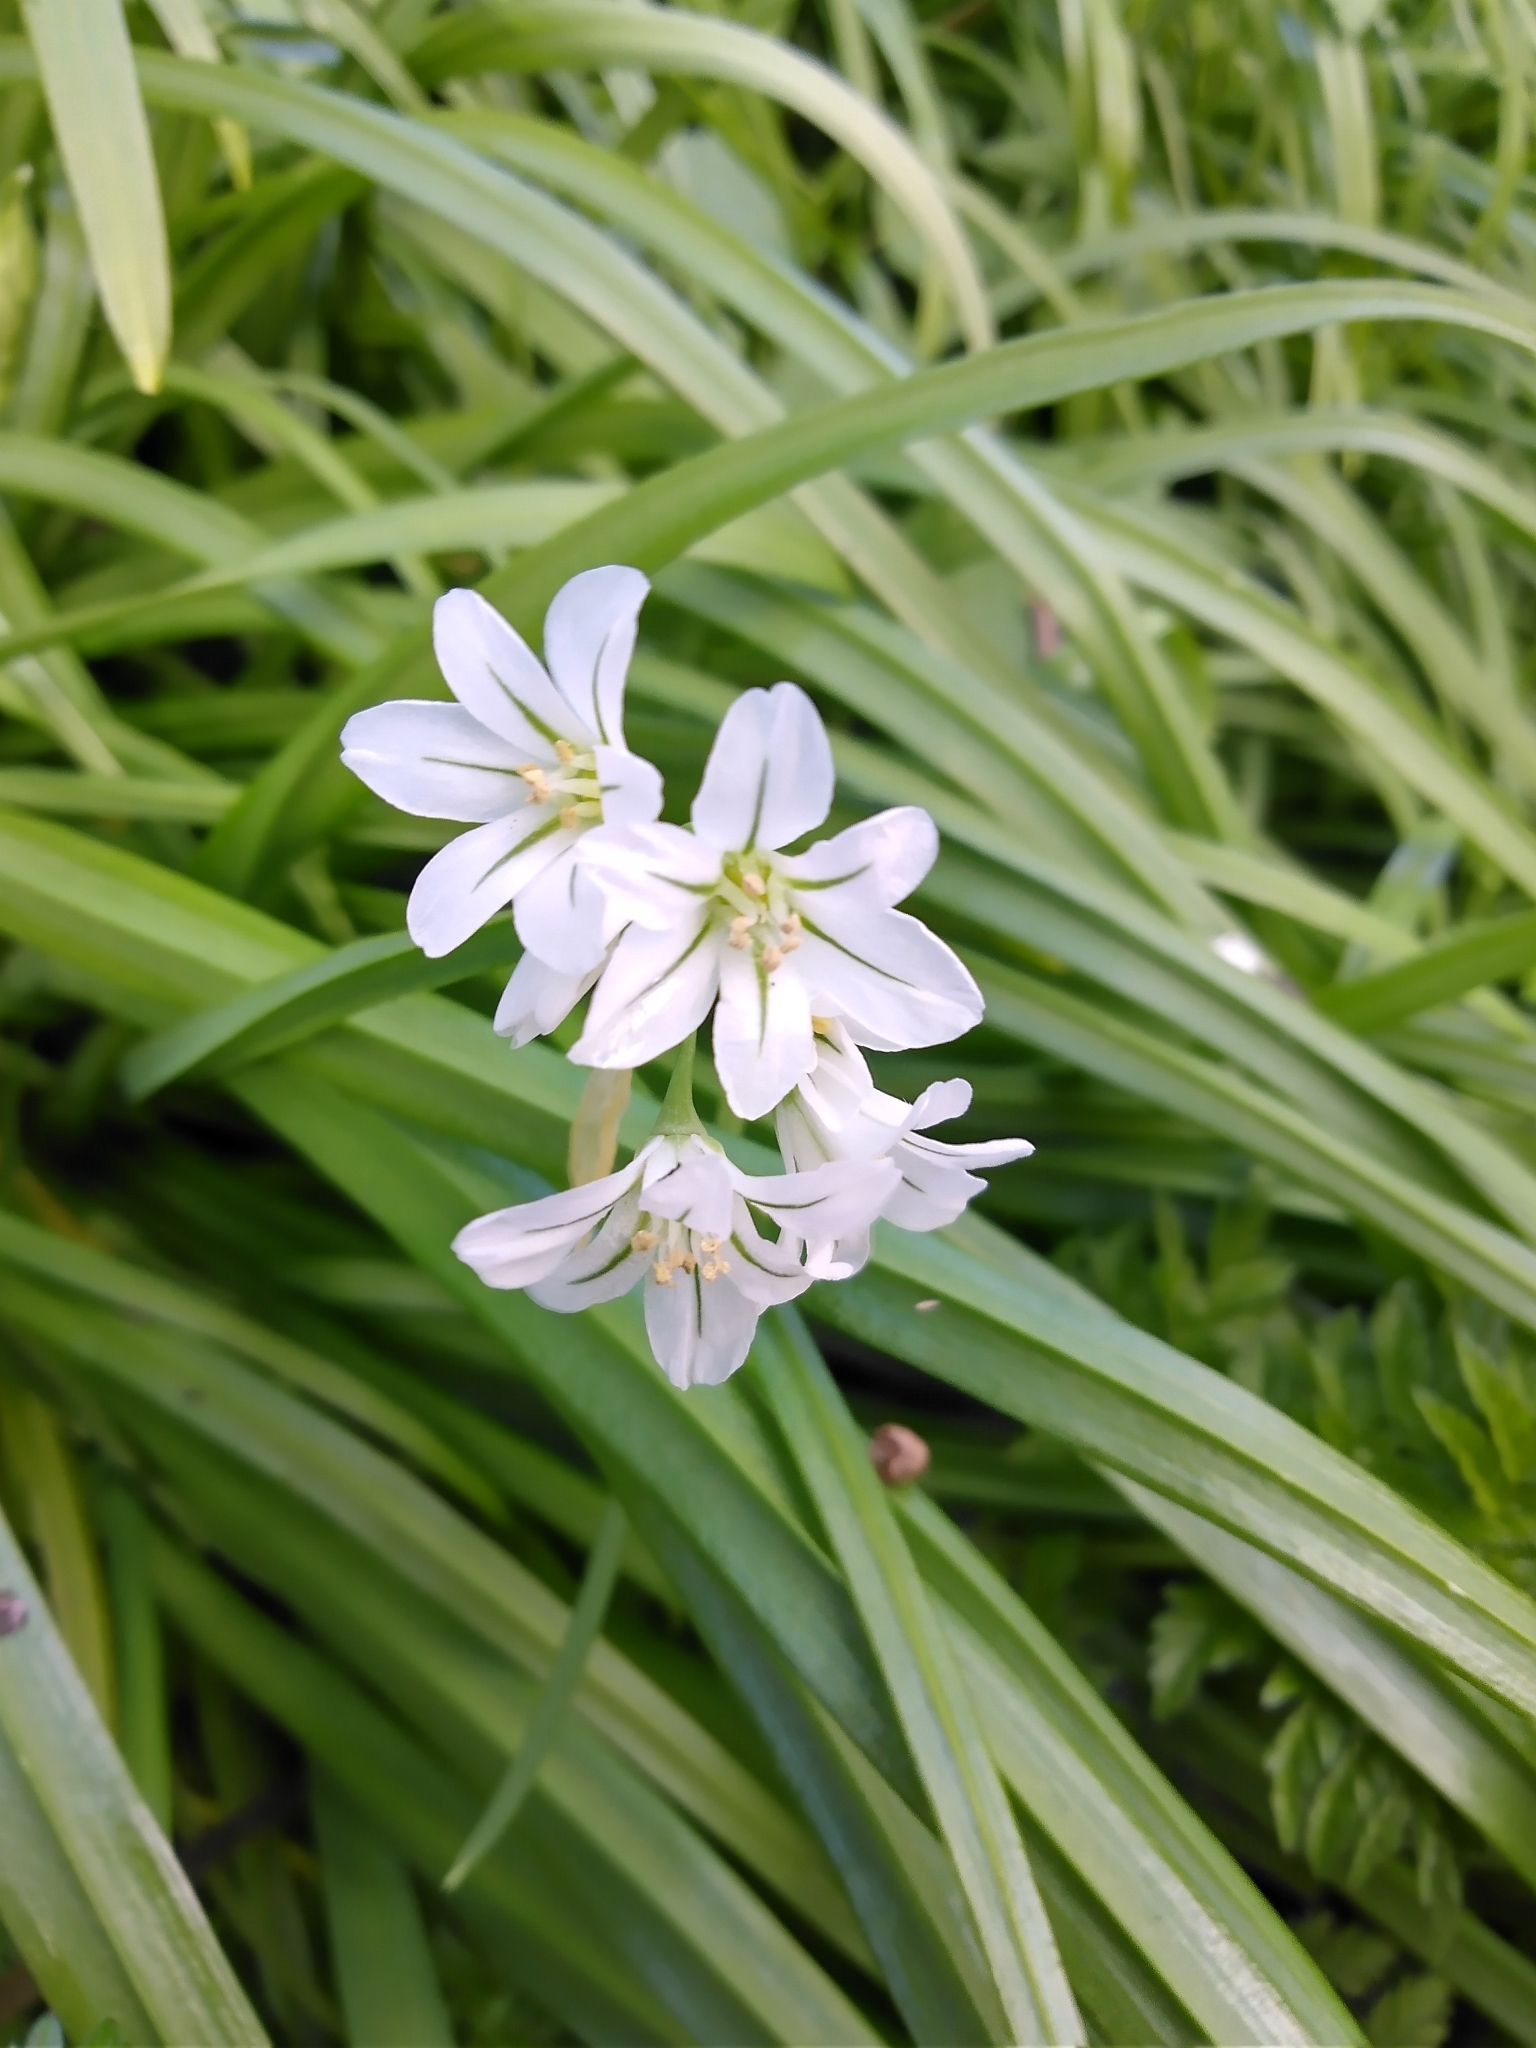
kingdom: Plantae
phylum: Tracheophyta
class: Liliopsida
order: Asparagales
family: Amaryllidaceae
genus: Allium
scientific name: Allium triquetrum
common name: Three-cornered garlic
